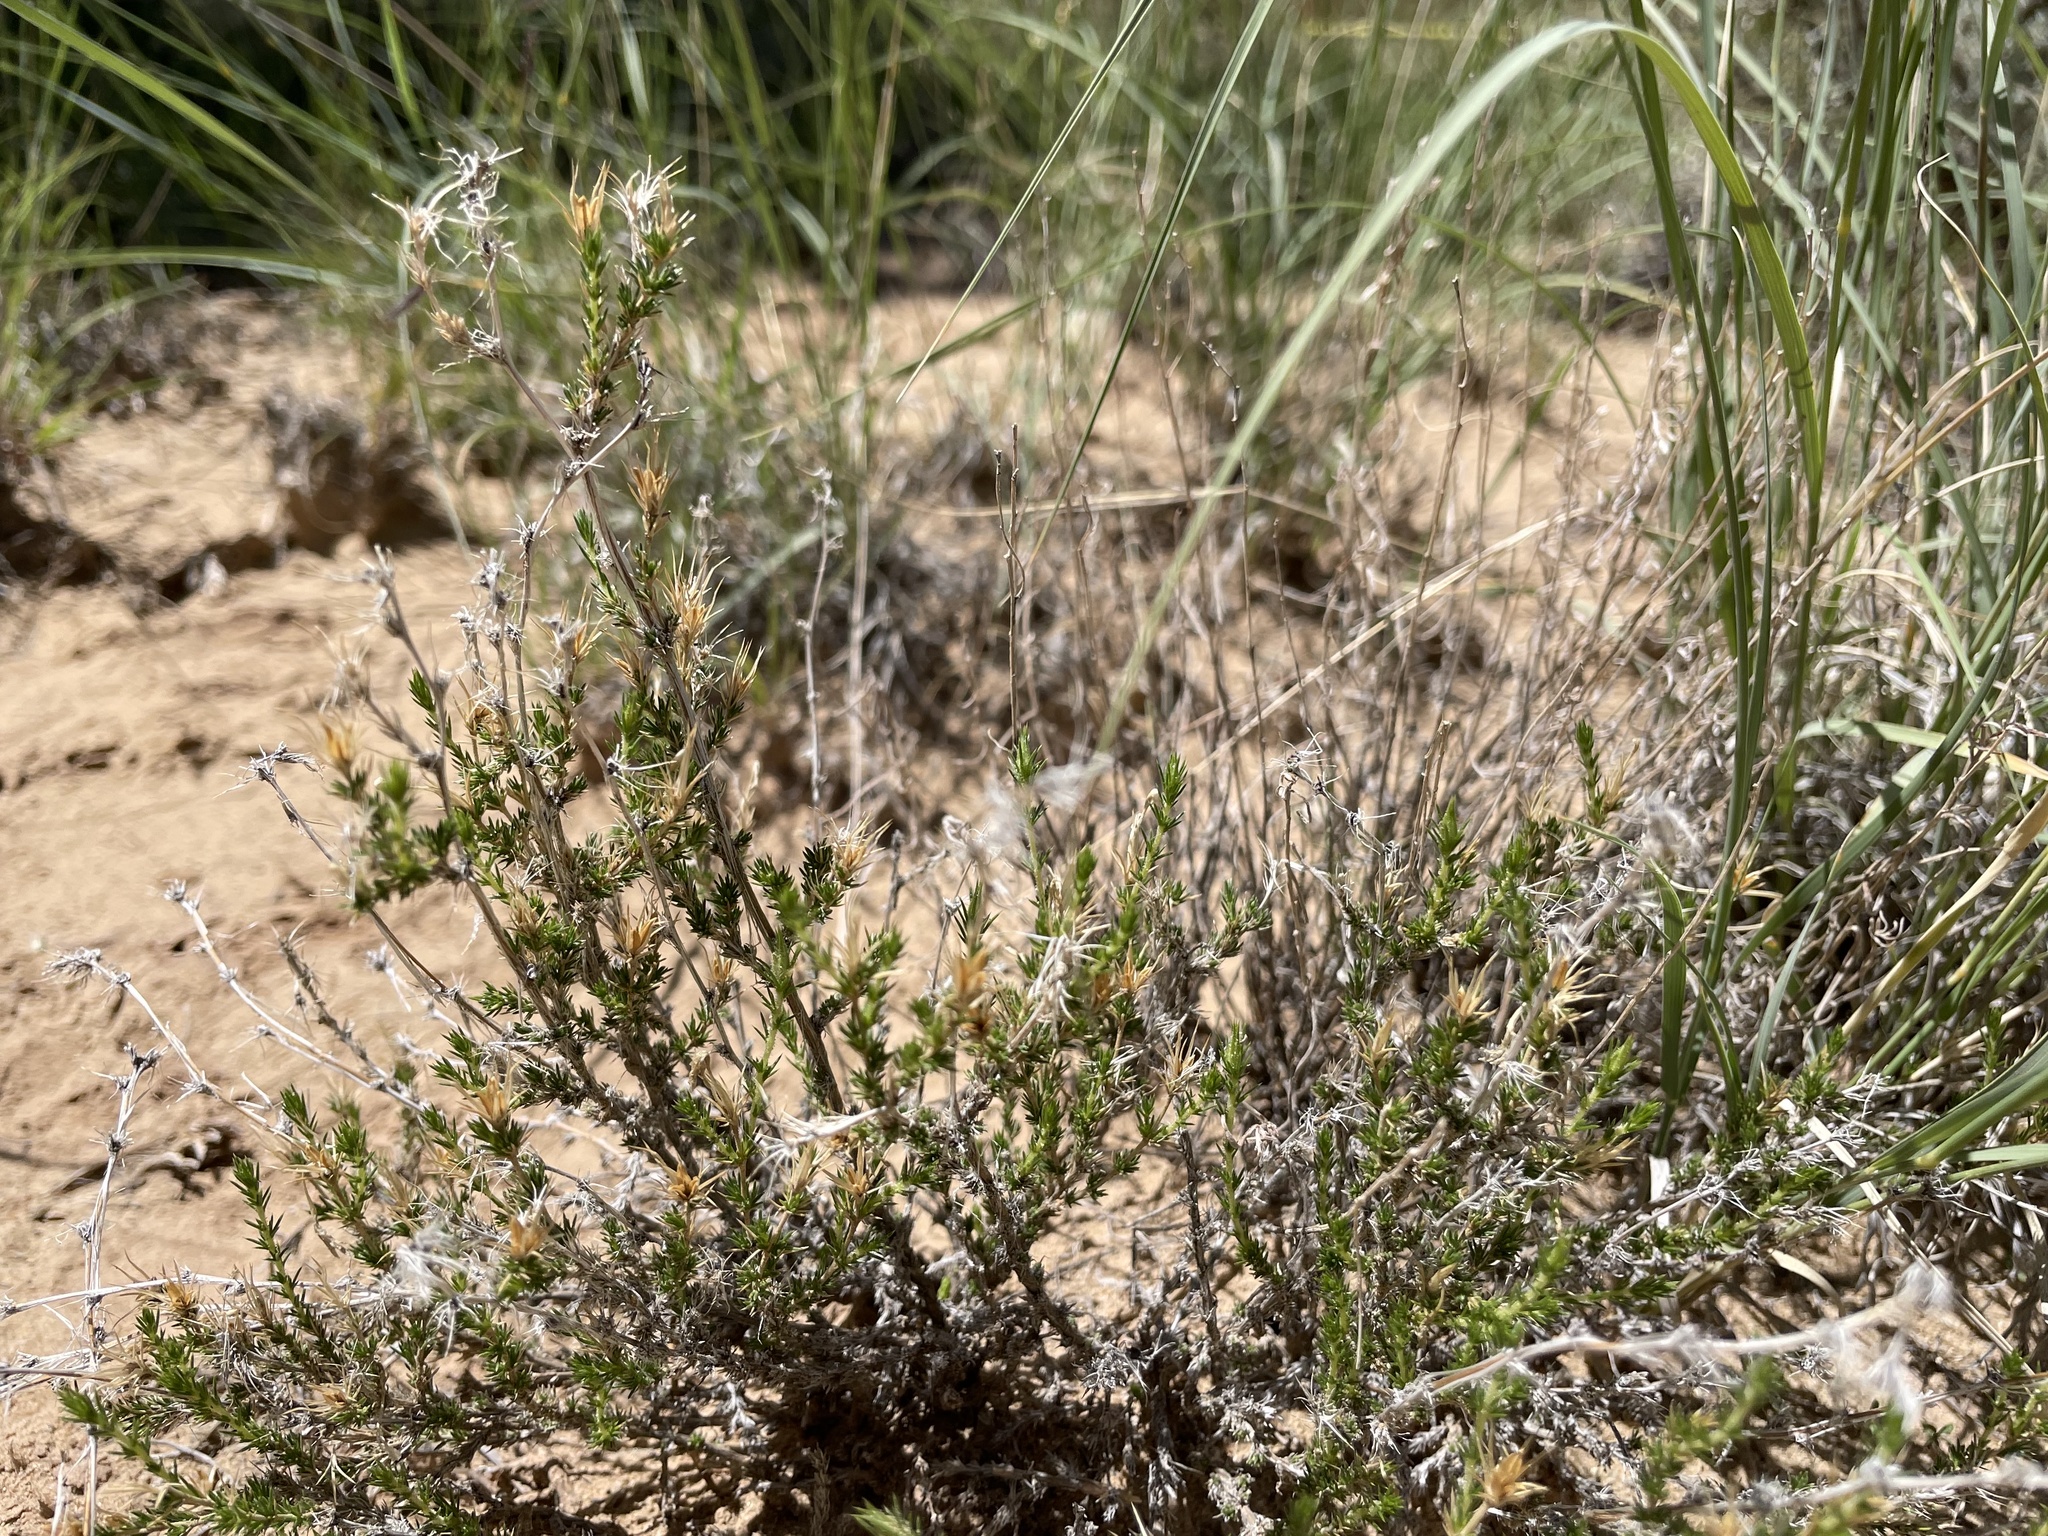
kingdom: Plantae
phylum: Tracheophyta
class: Magnoliopsida
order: Ericales
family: Polemoniaceae
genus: Linanthus
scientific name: Linanthus pungens
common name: Granite prickly phlox
